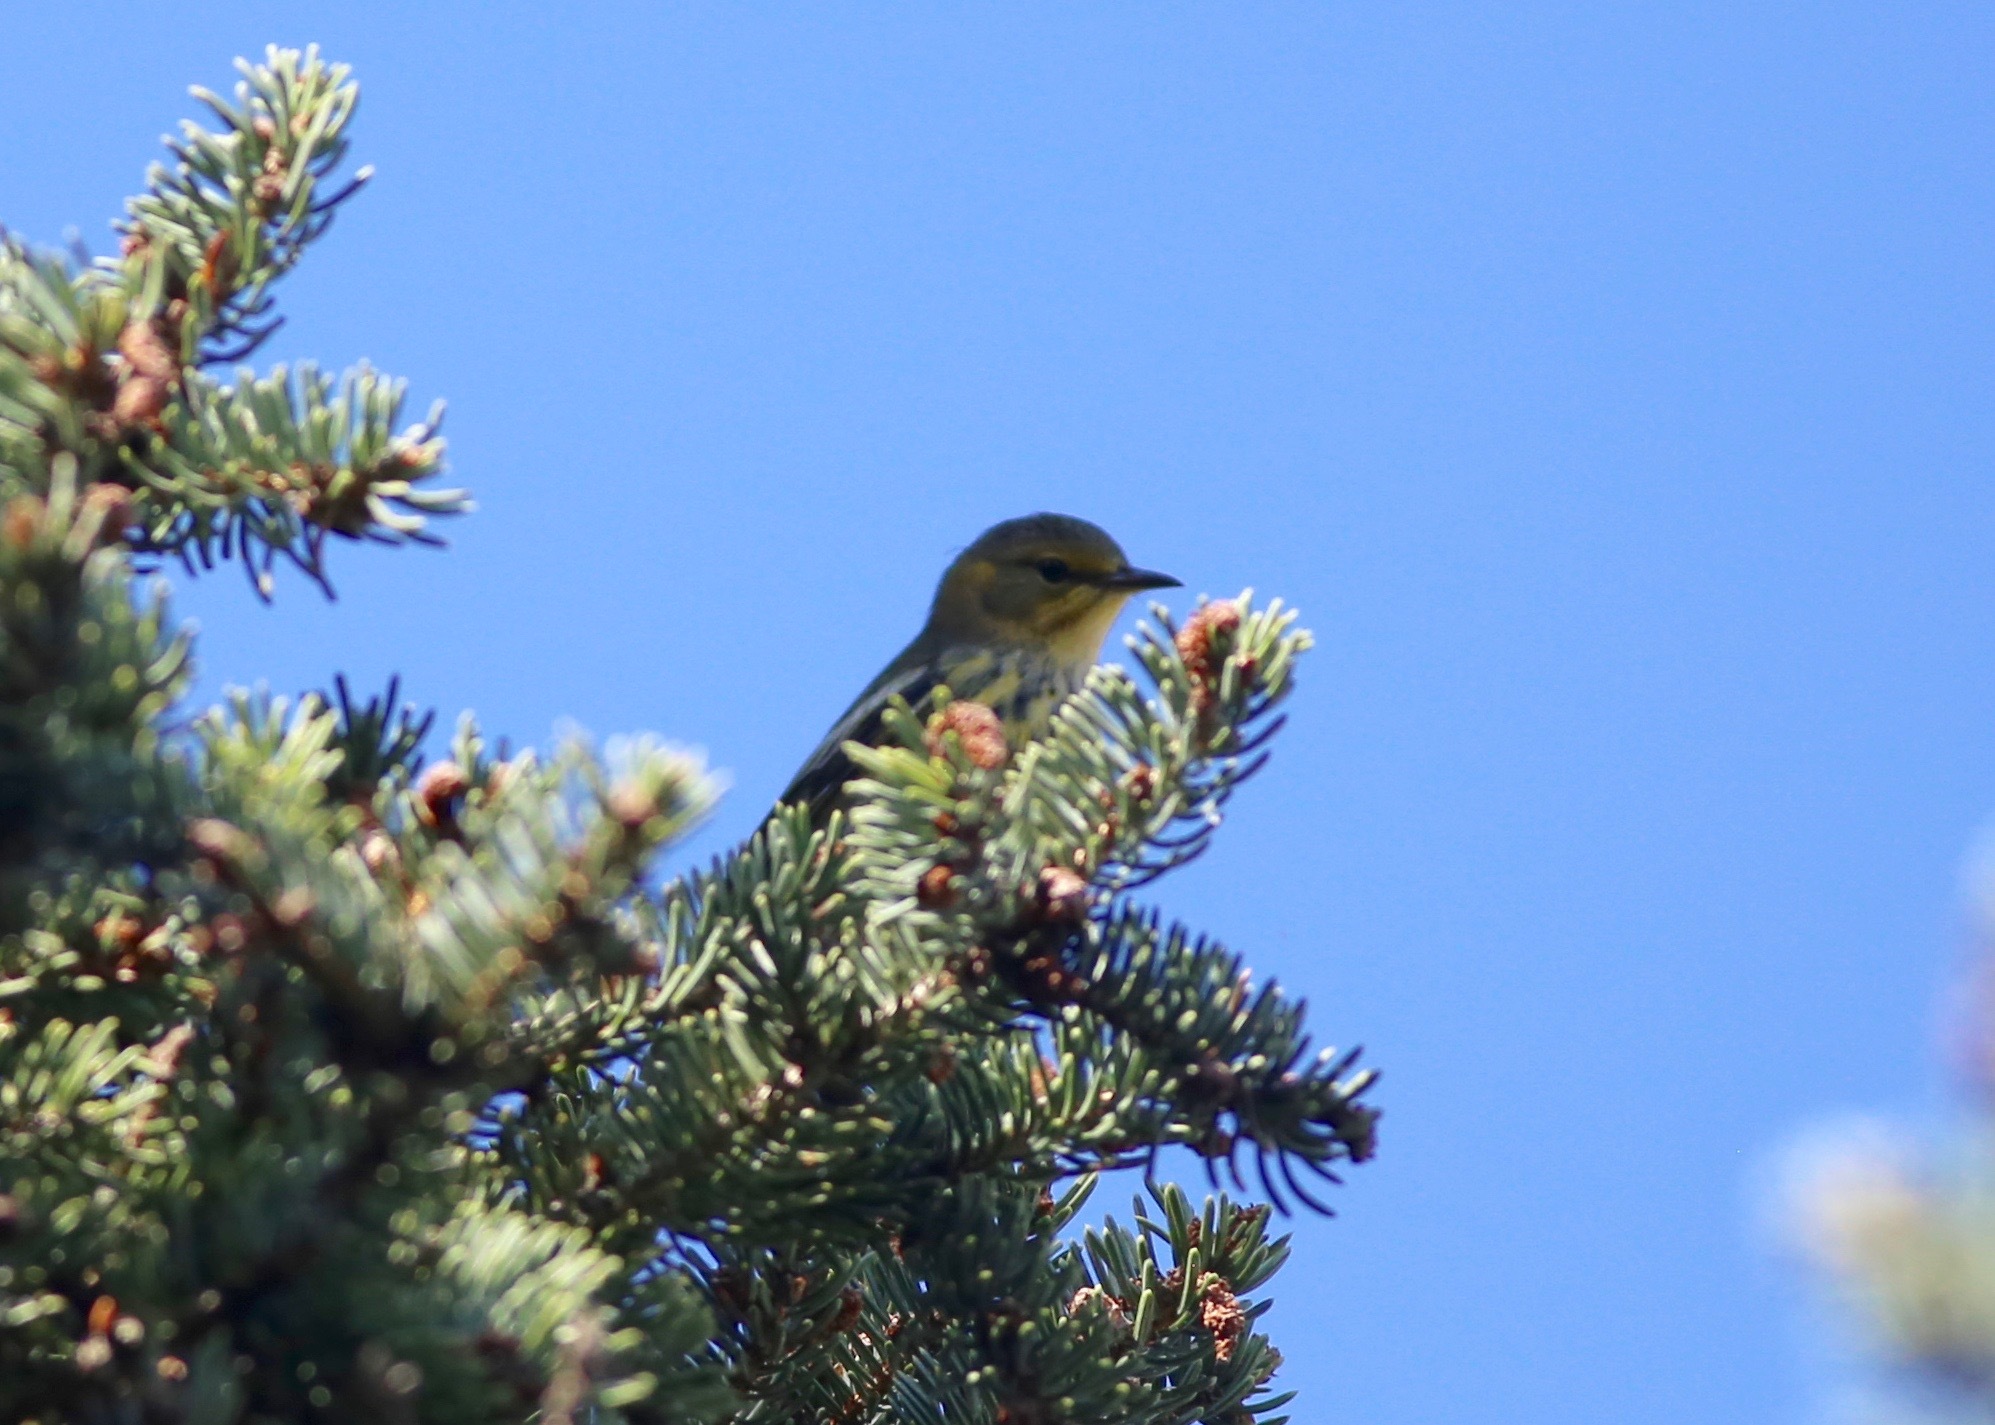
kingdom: Animalia
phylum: Chordata
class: Aves
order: Passeriformes
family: Parulidae
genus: Setophaga
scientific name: Setophaga tigrina
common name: Cape may warbler
